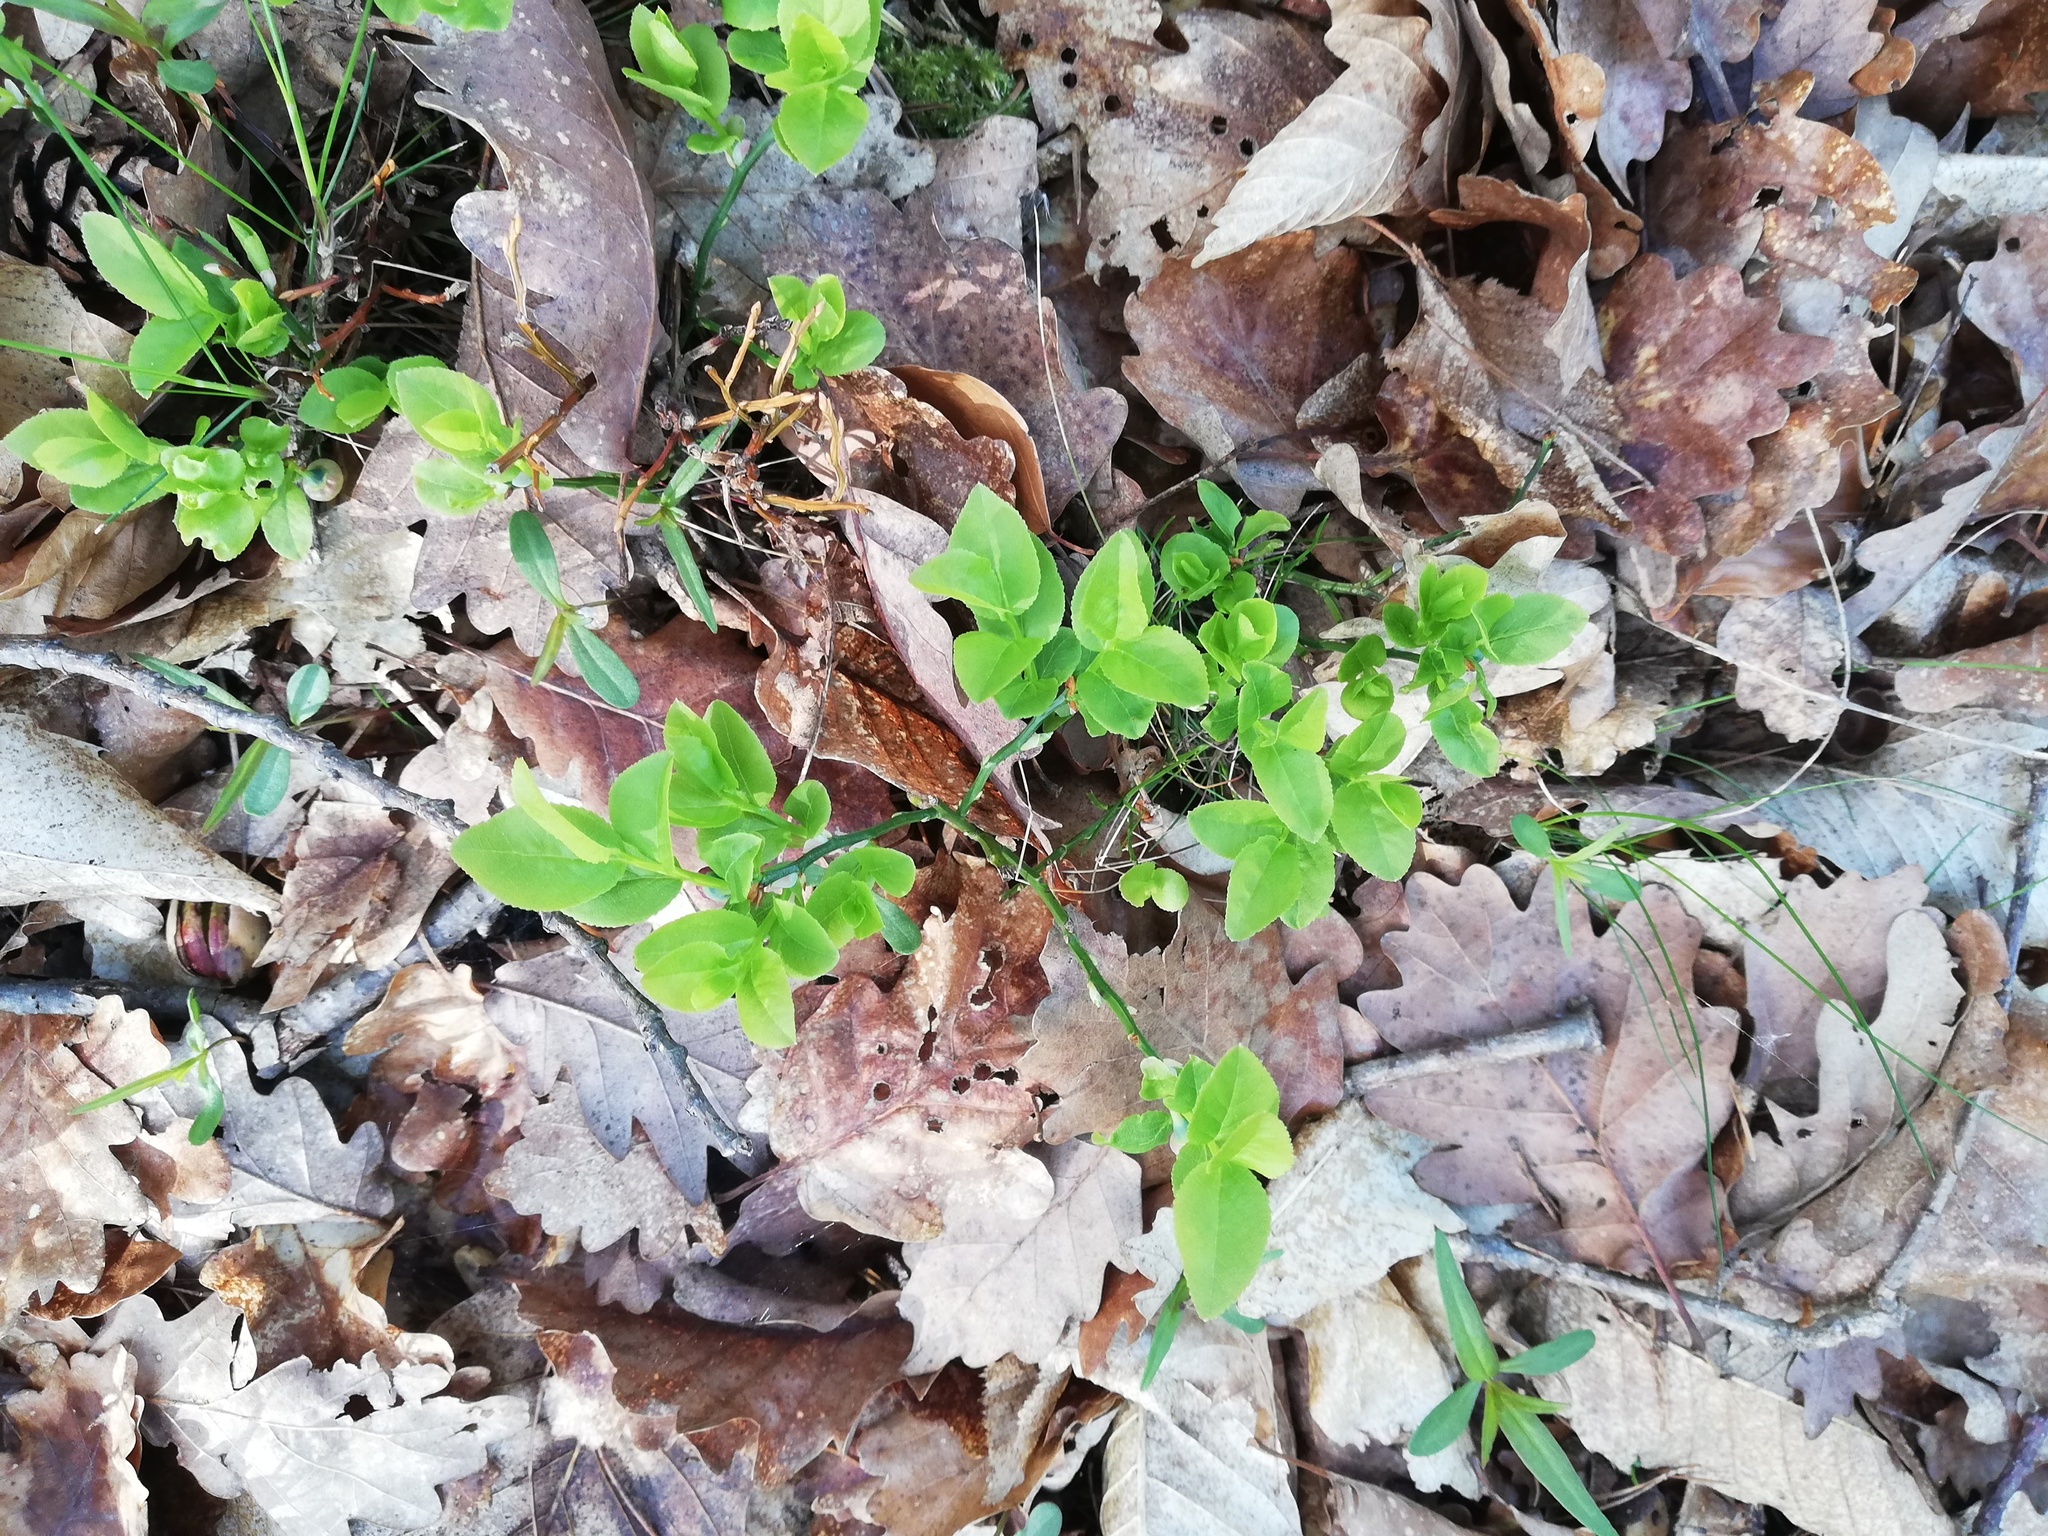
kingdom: Plantae
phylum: Tracheophyta
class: Magnoliopsida
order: Ericales
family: Ericaceae
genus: Vaccinium
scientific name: Vaccinium myrtillus
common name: Bilberry
